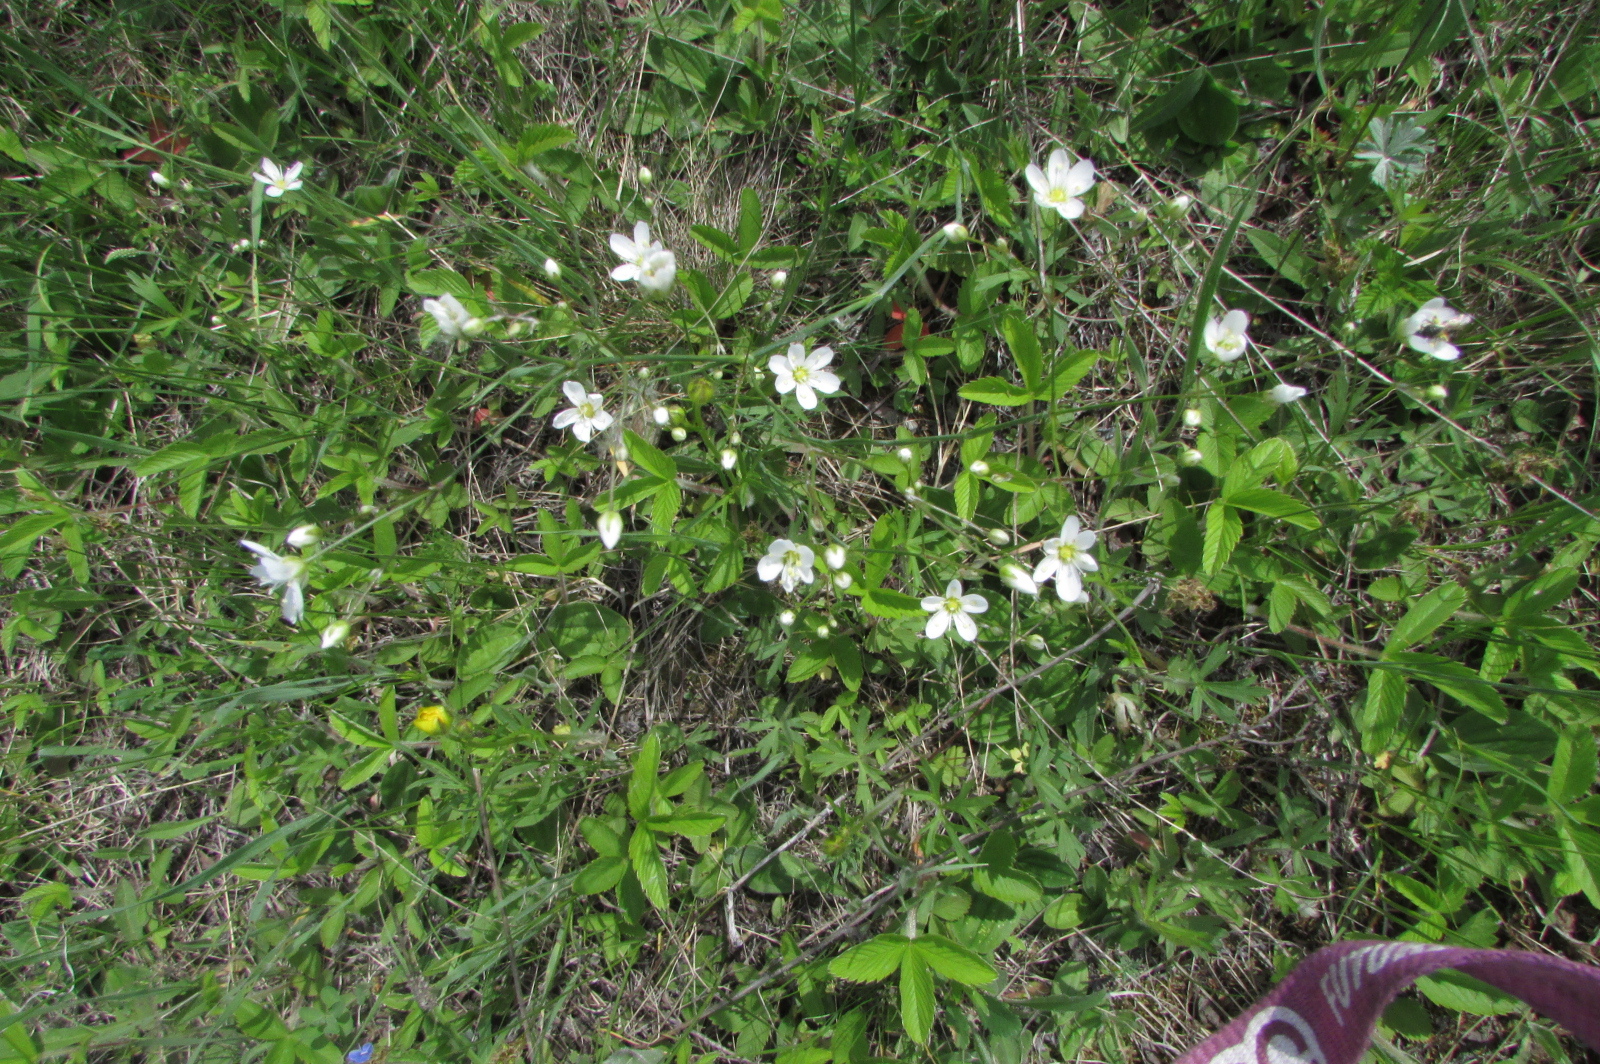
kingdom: Plantae
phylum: Tracheophyta
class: Magnoliopsida
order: Caryophyllales
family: Caryophyllaceae
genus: Eremogone
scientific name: Eremogone saxatilis
